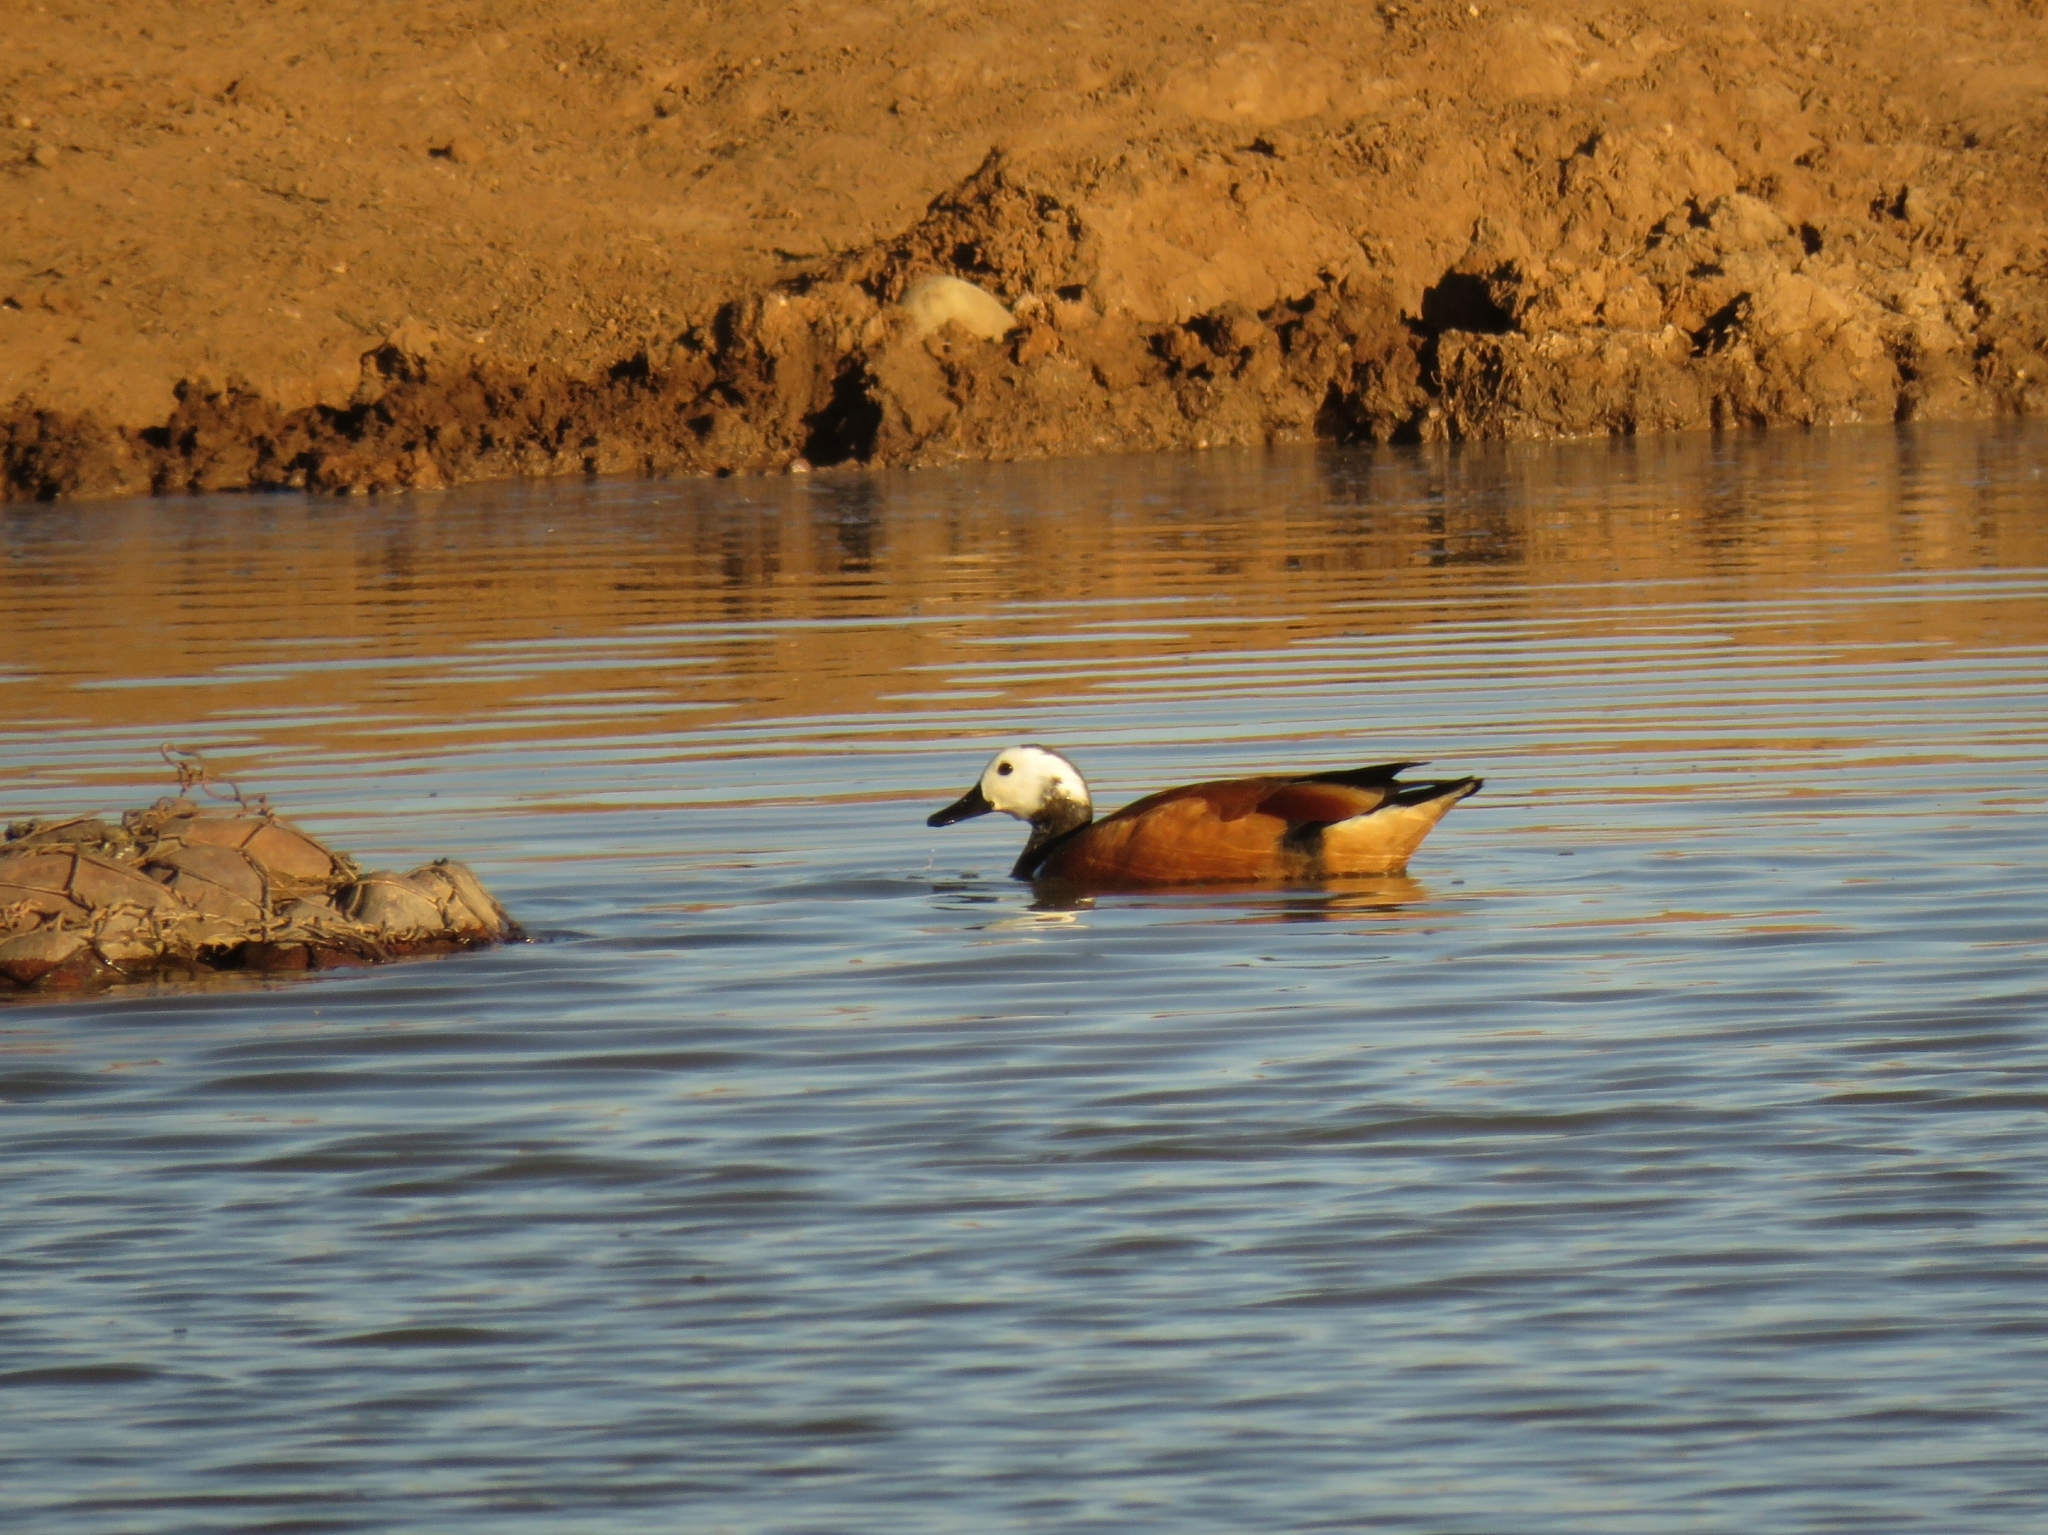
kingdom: Animalia
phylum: Chordata
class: Aves
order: Anseriformes
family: Anatidae
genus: Tadorna
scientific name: Tadorna cana
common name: South african shelduck
